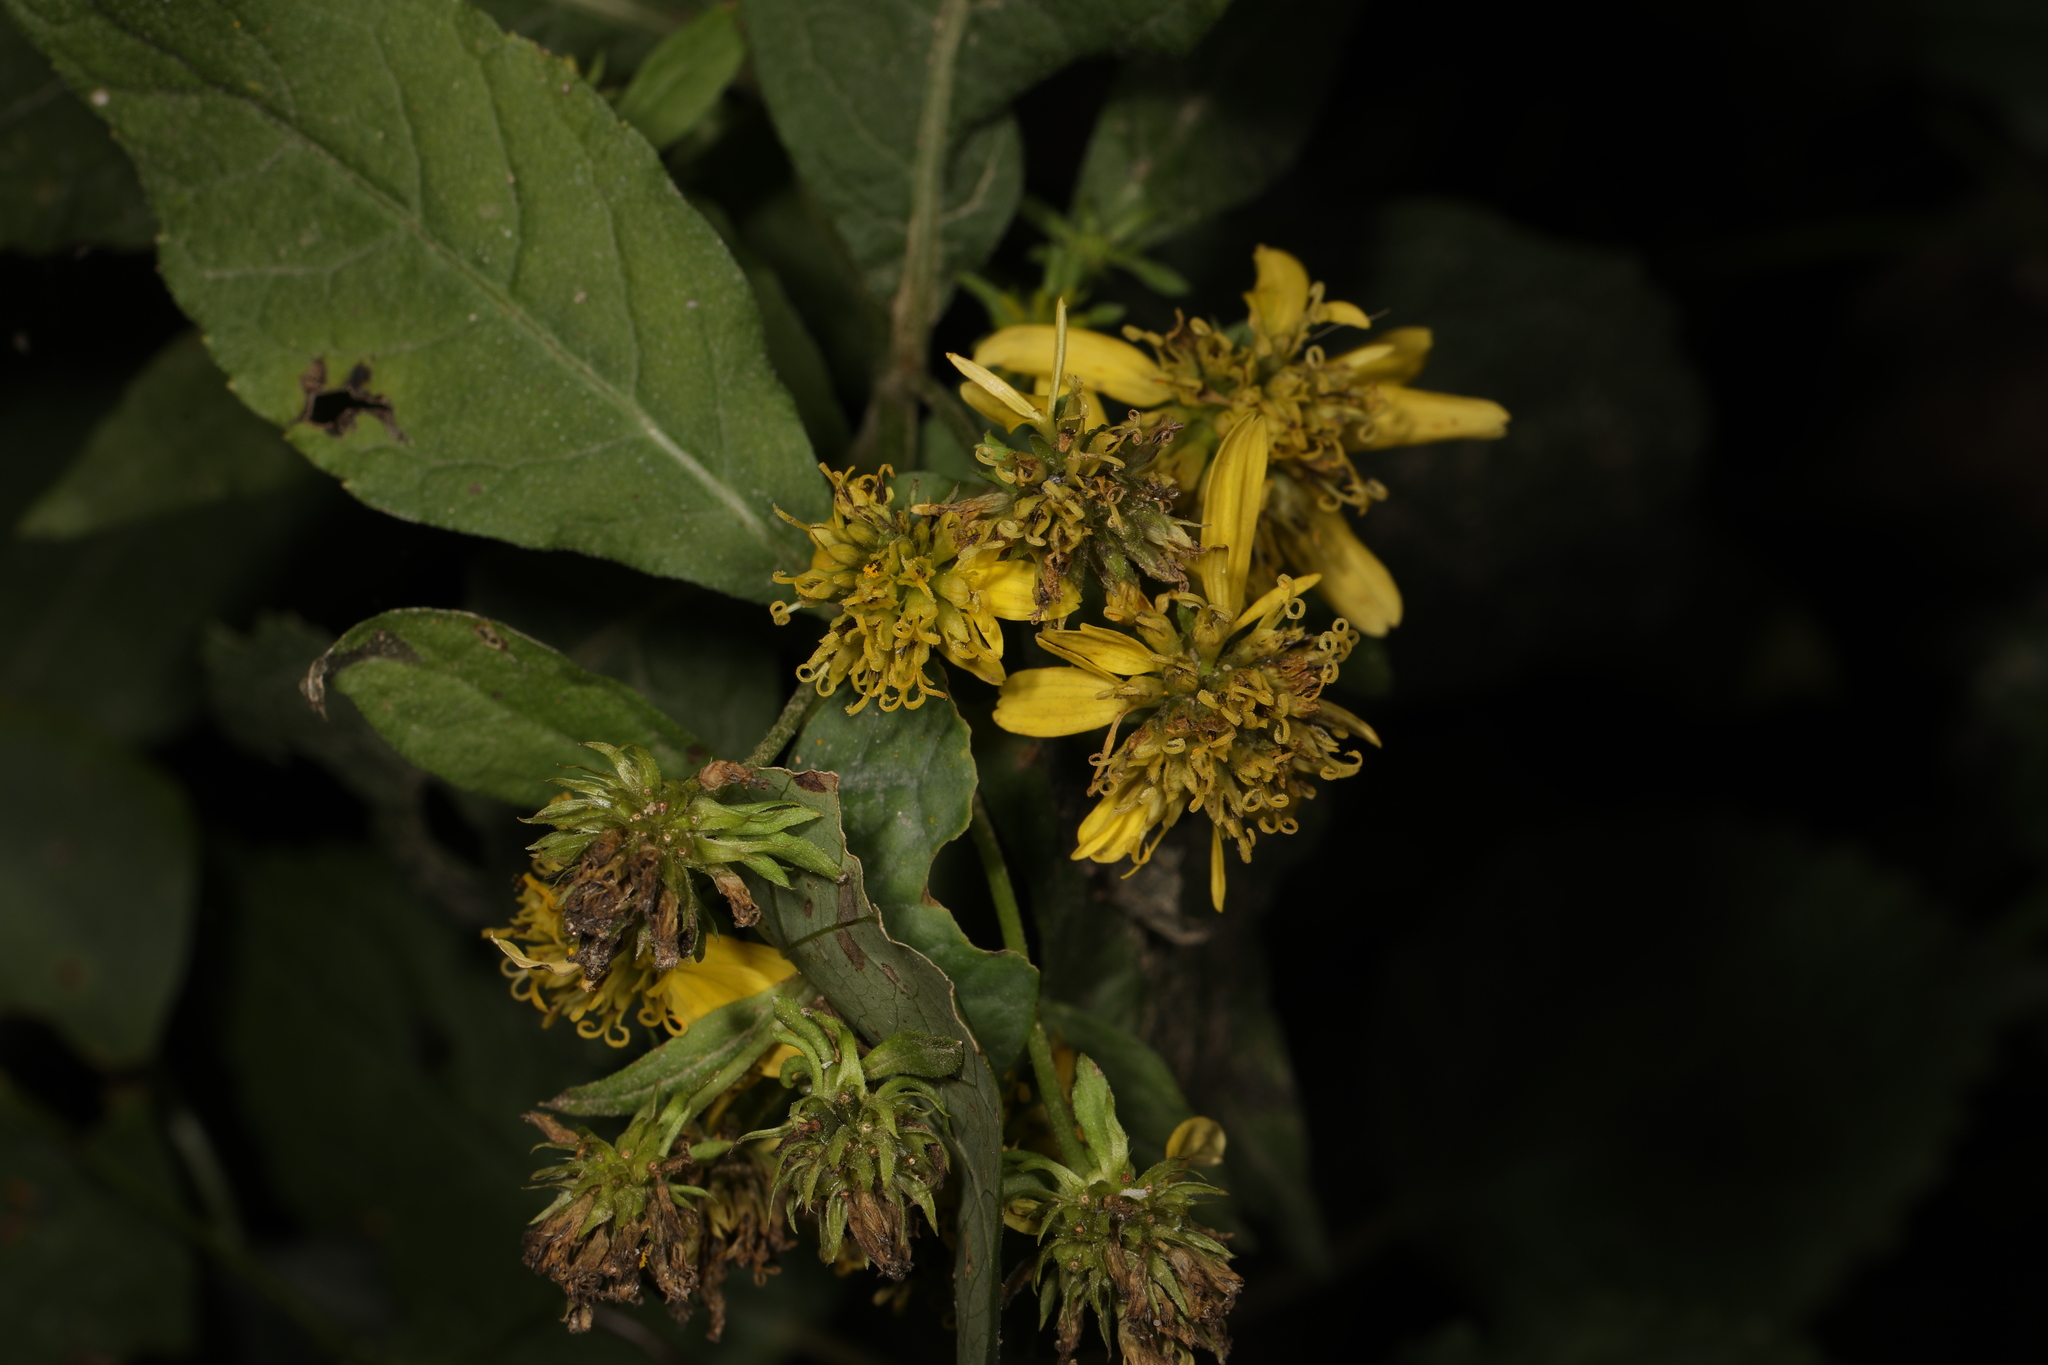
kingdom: Plantae
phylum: Tracheophyta
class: Magnoliopsida
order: Asterales
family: Asteraceae
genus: Verbesina
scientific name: Verbesina alternifolia
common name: Wingstem
